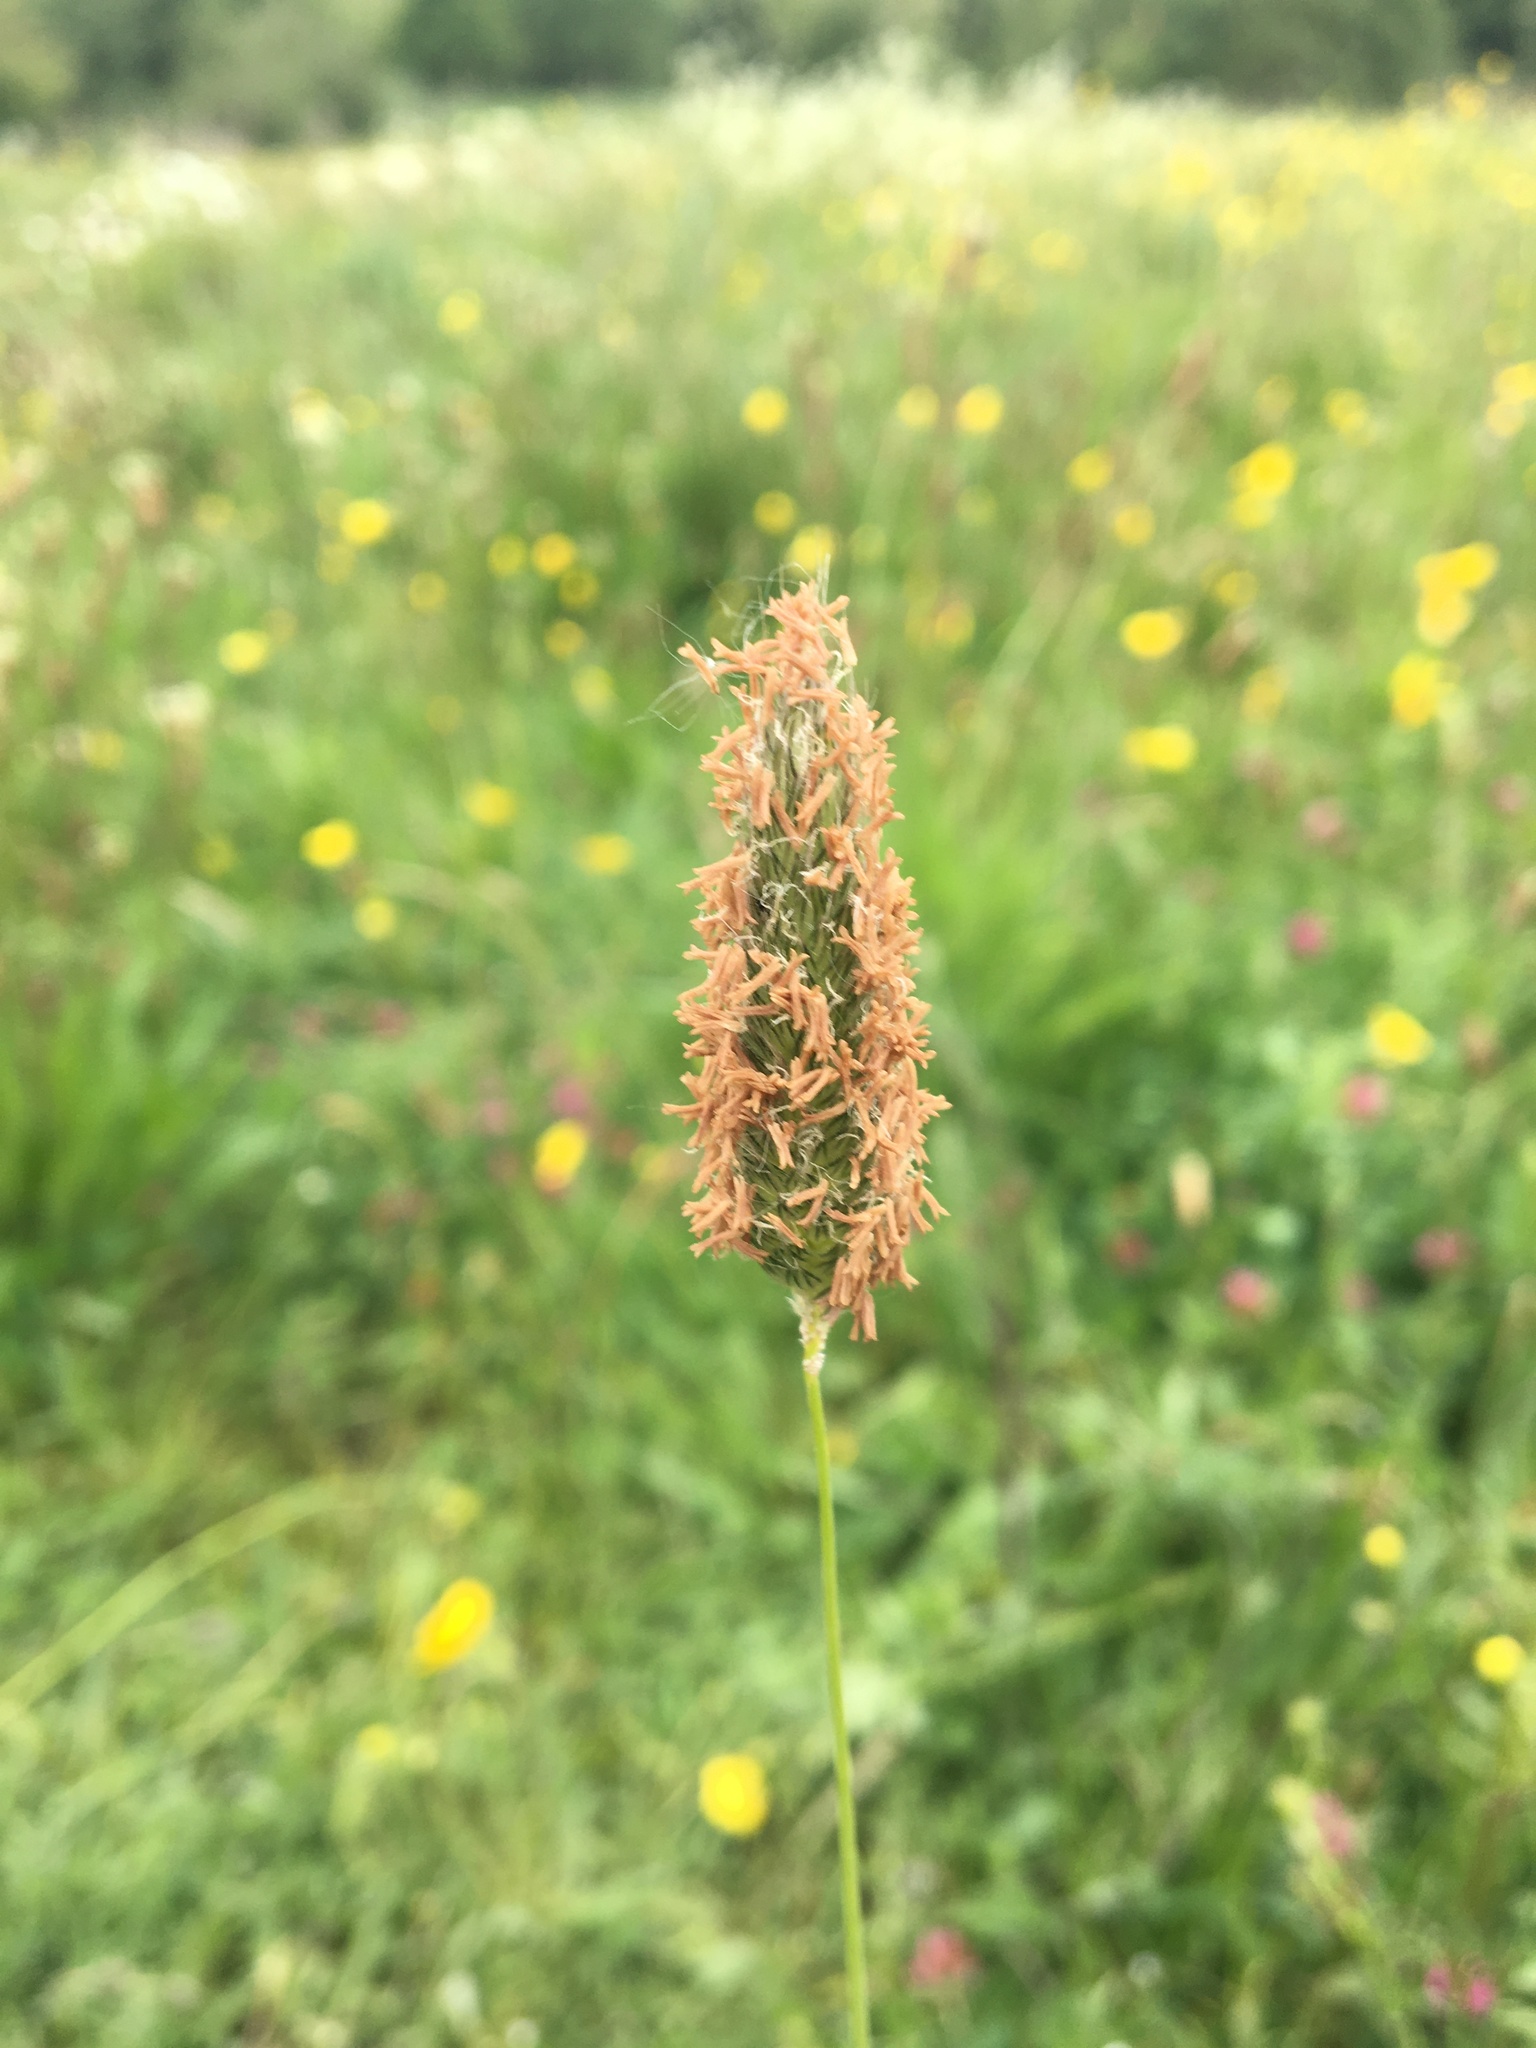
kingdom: Plantae
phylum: Tracheophyta
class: Liliopsida
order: Poales
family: Poaceae
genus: Alopecurus
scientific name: Alopecurus pratensis
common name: Meadow foxtail
